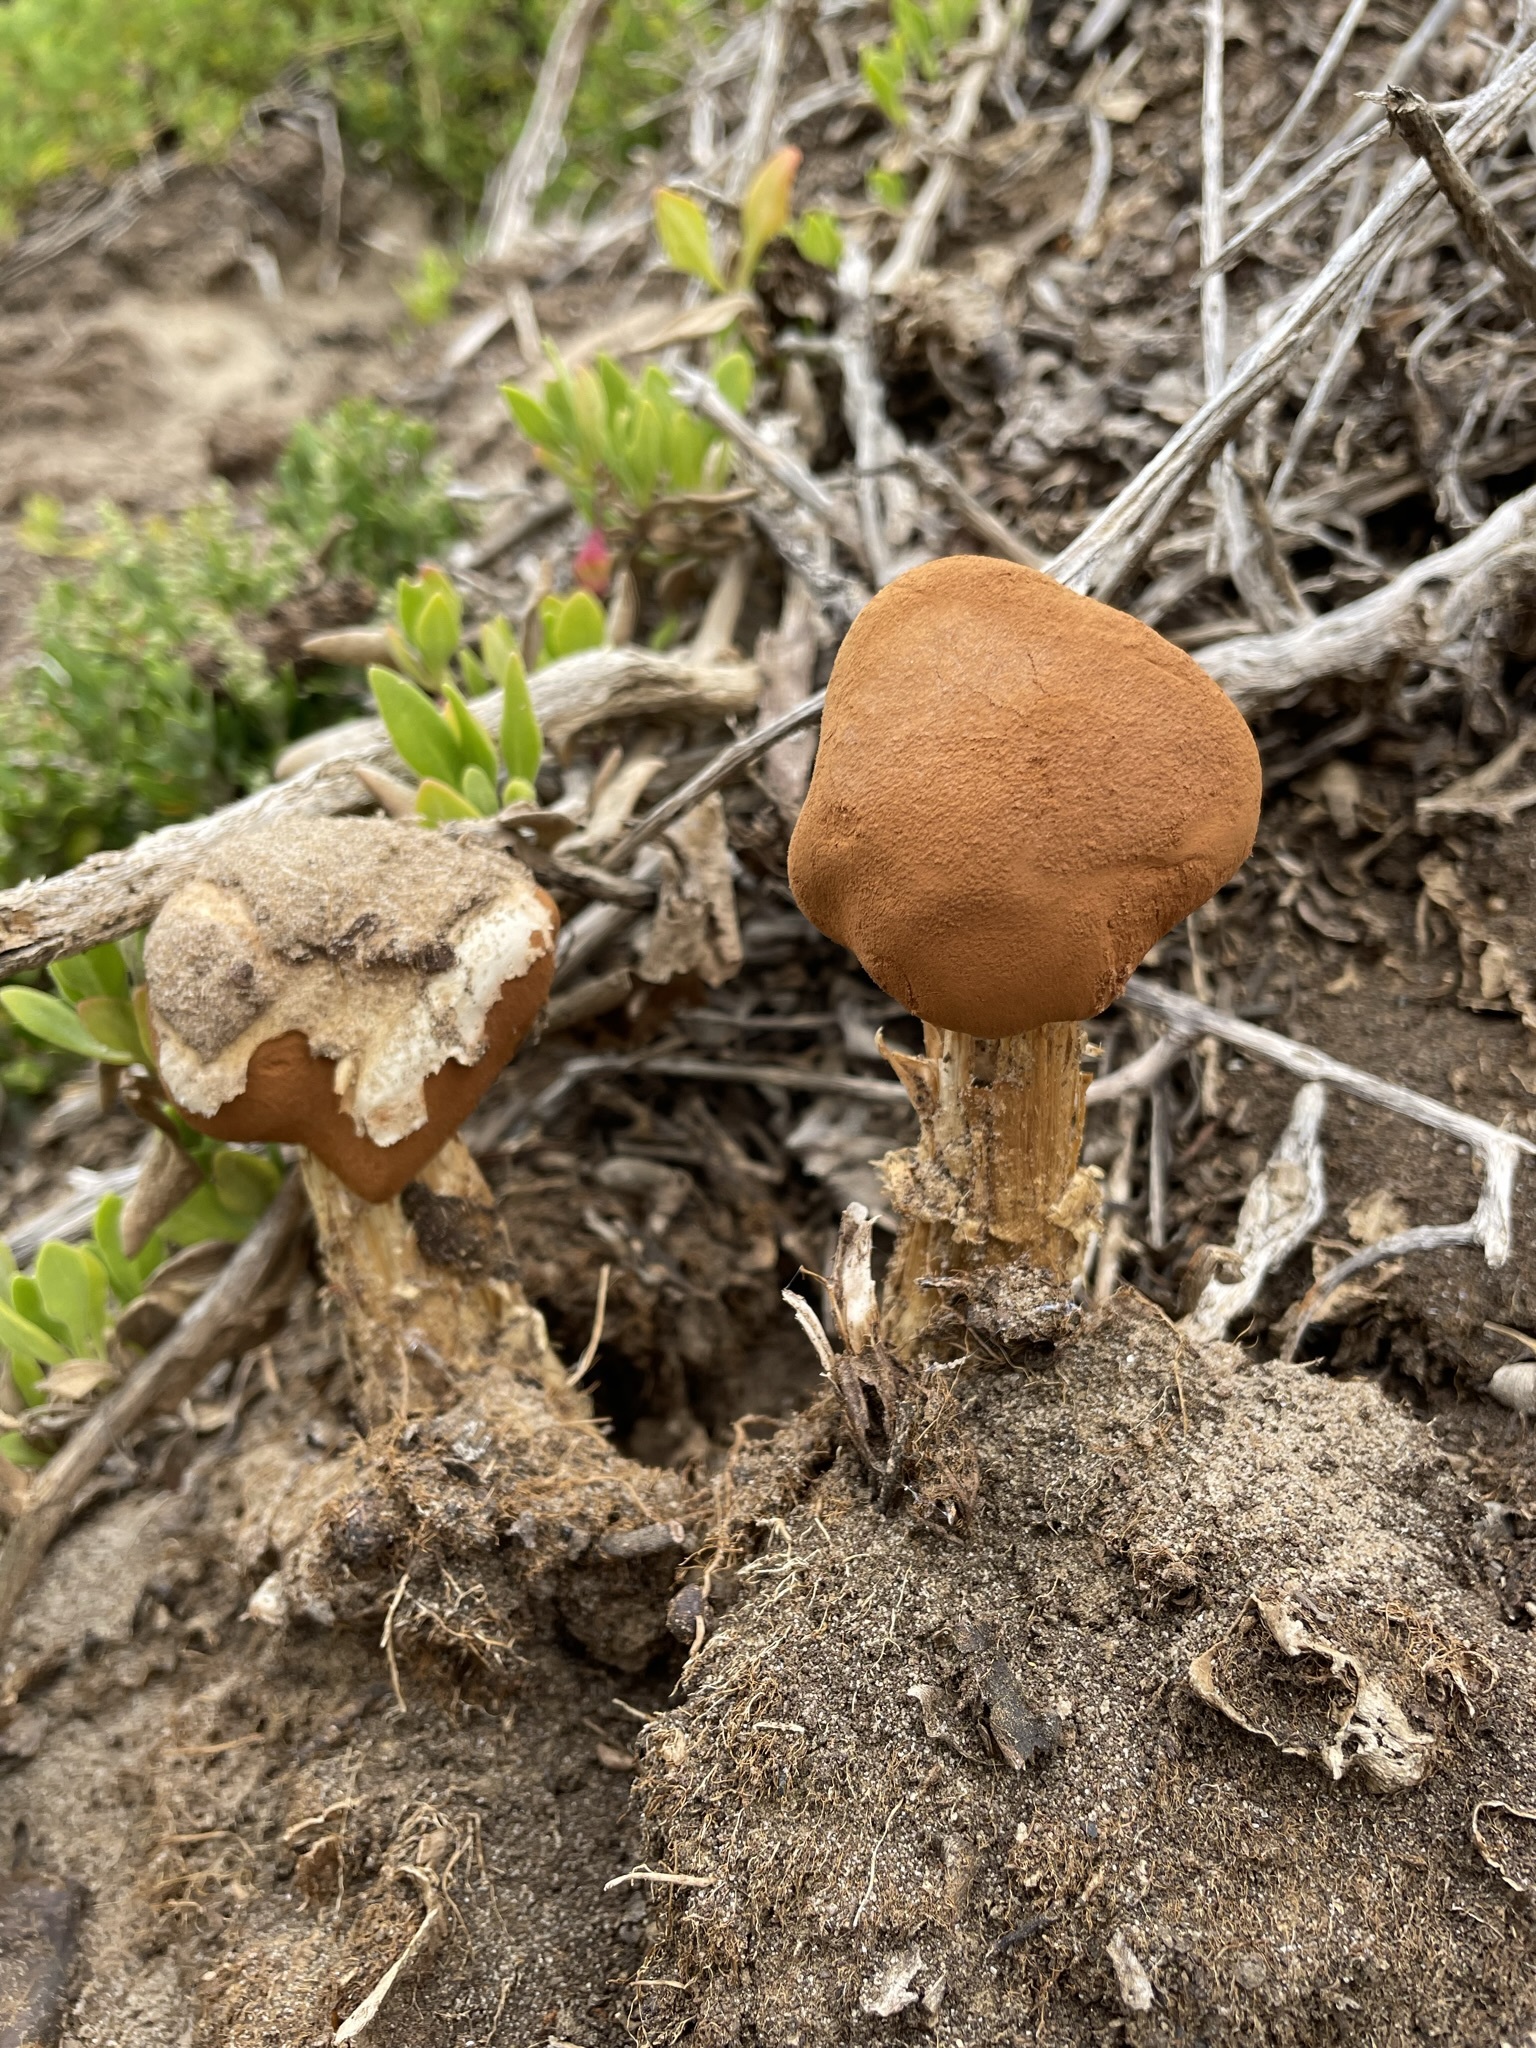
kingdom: Fungi
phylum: Basidiomycota
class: Agaricomycetes
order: Agaricales
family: Agaricaceae
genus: Battarrea
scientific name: Battarrea phalloides
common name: Sandy stiltball
